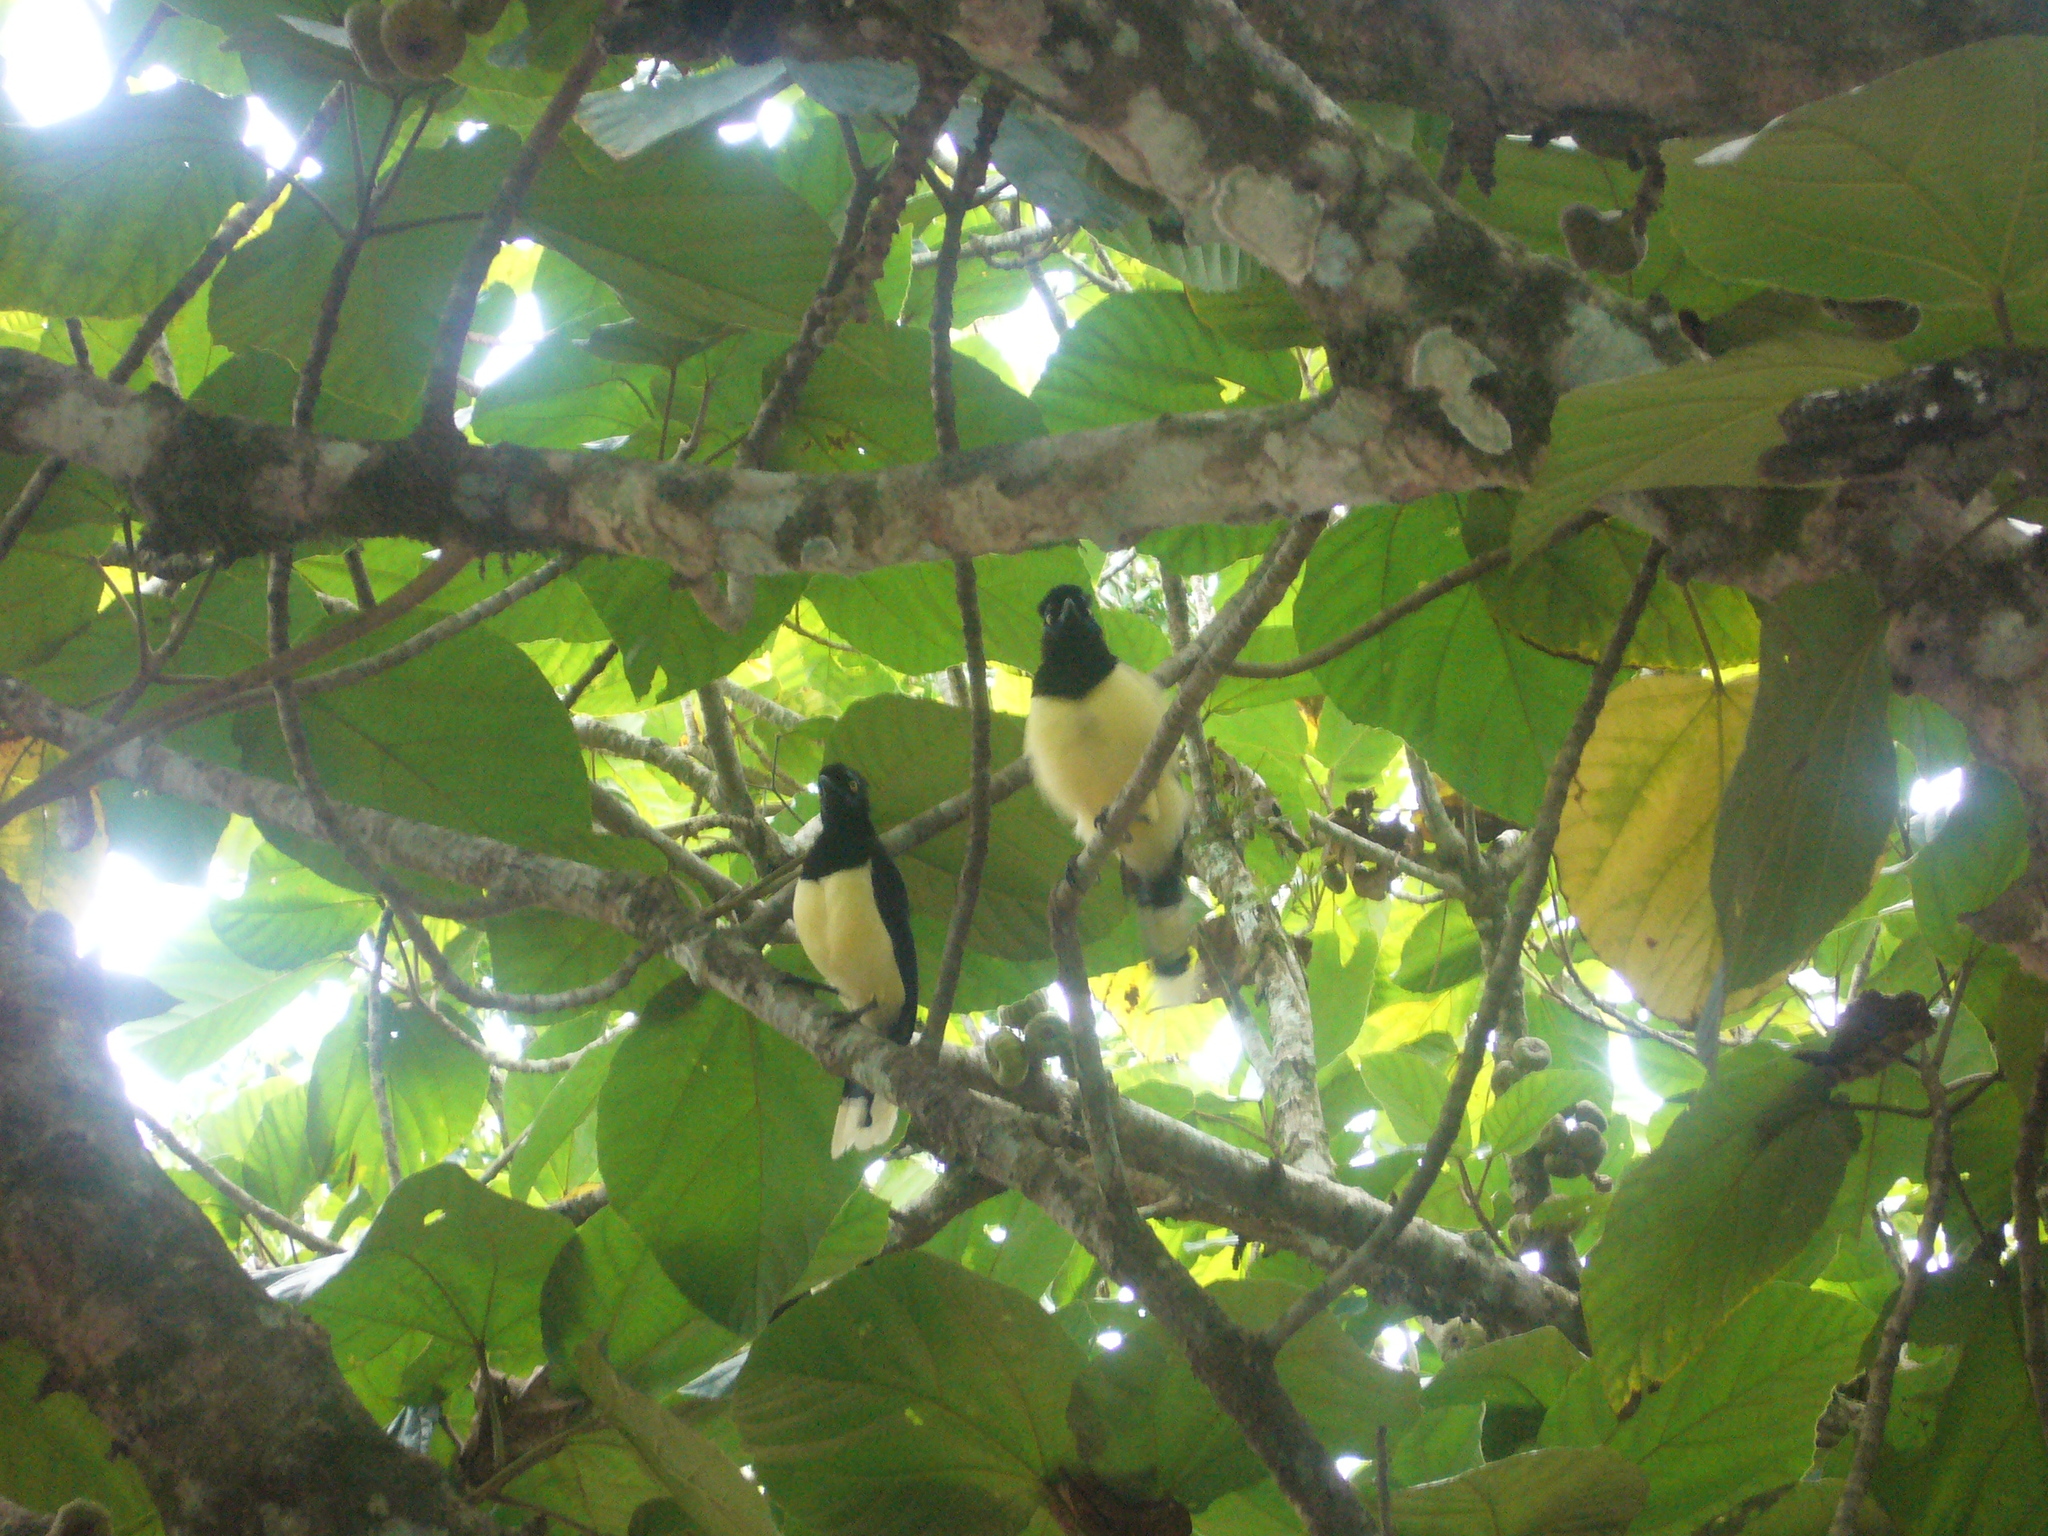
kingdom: Animalia
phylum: Chordata
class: Aves
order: Passeriformes
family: Corvidae
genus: Cyanocorax
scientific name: Cyanocorax chrysops
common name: Plush-crested jay
